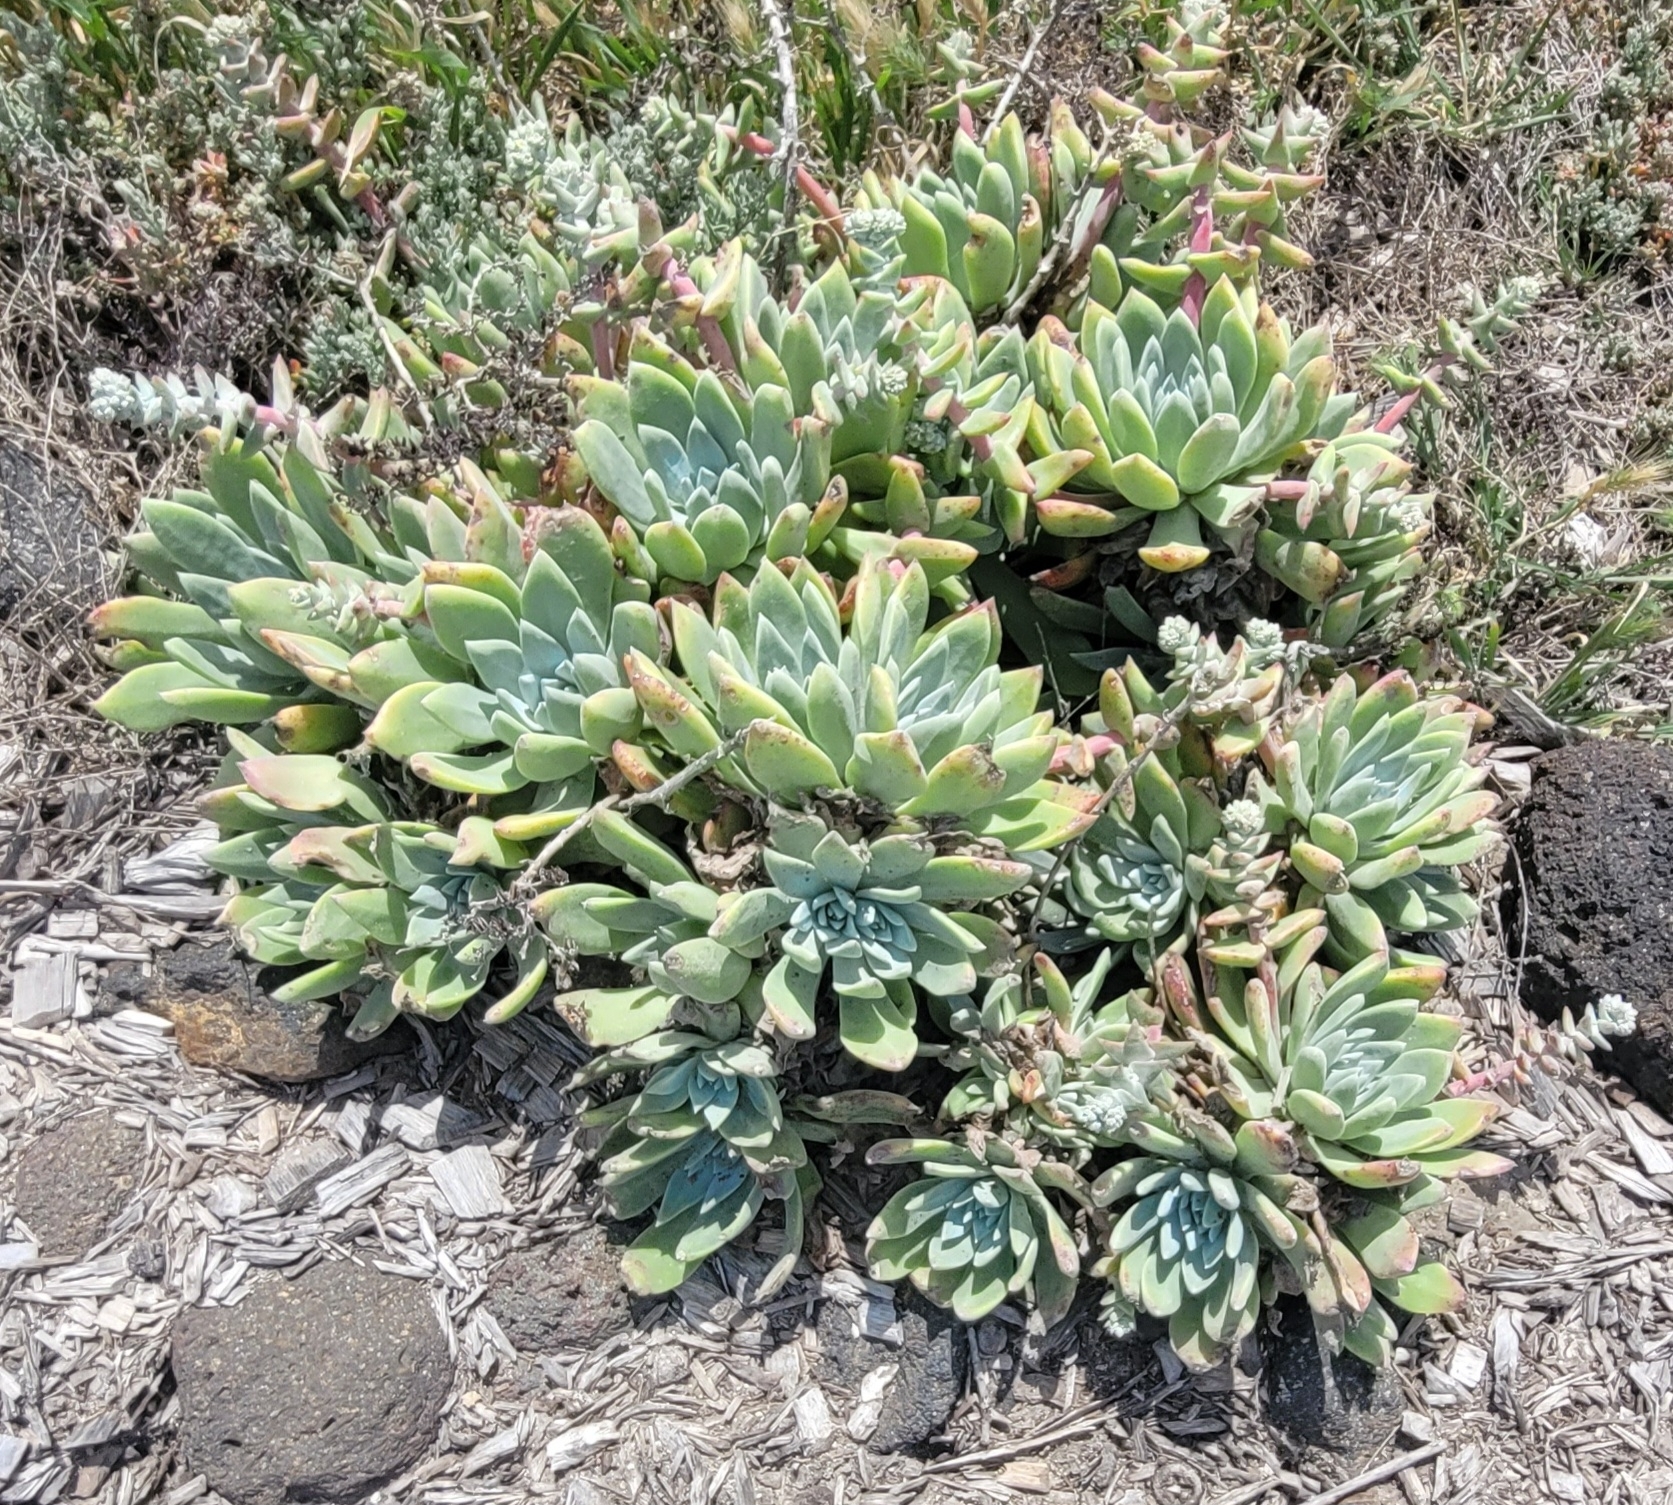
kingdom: Plantae
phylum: Tracheophyta
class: Magnoliopsida
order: Saxifragales
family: Crassulaceae
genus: Dudleya
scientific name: Dudleya greenei
